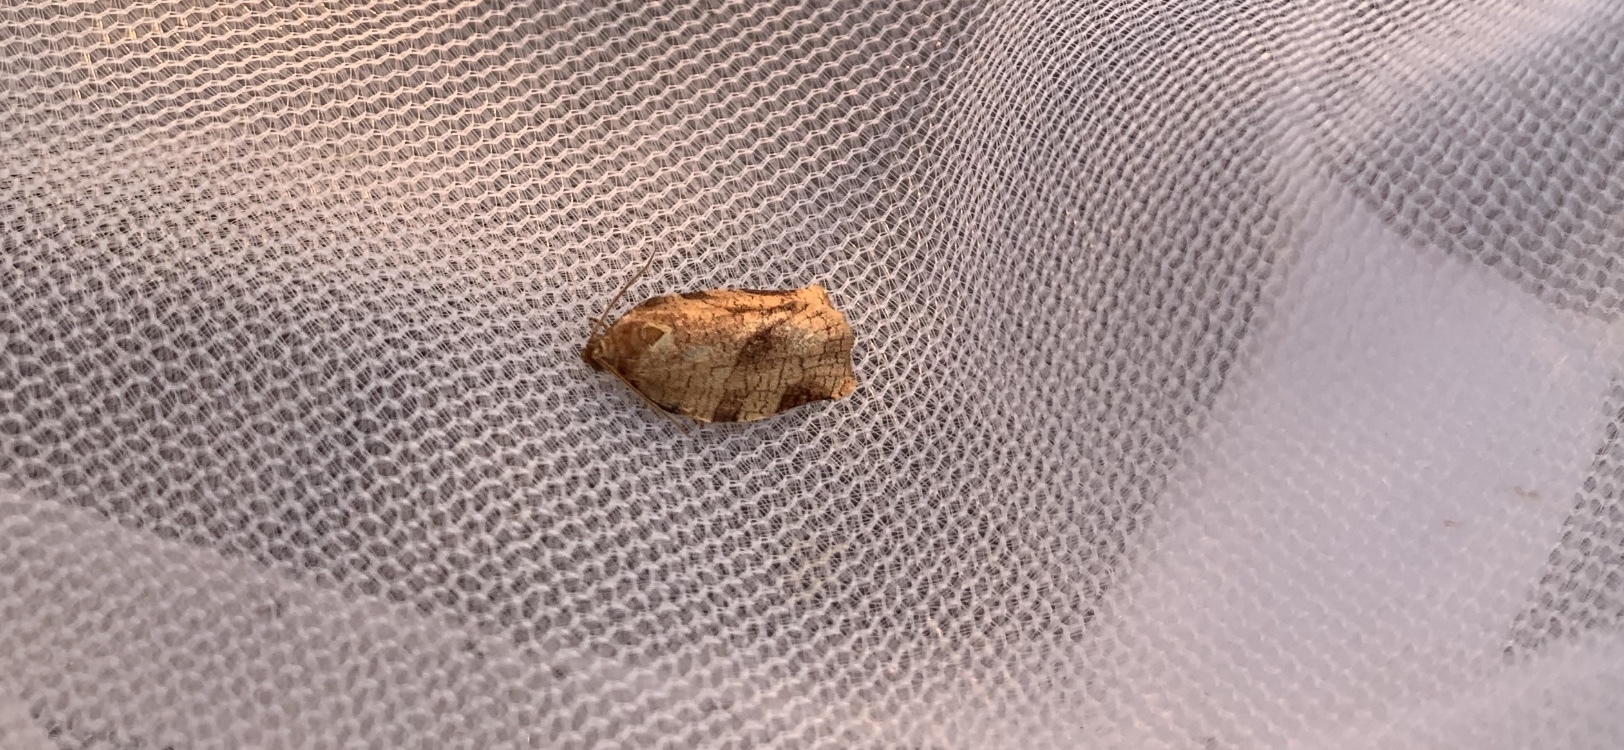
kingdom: Animalia
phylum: Arthropoda
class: Insecta
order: Lepidoptera
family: Tortricidae
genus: Choristoneura
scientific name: Choristoneura rosaceana
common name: Oblique-banded leafroller moth
